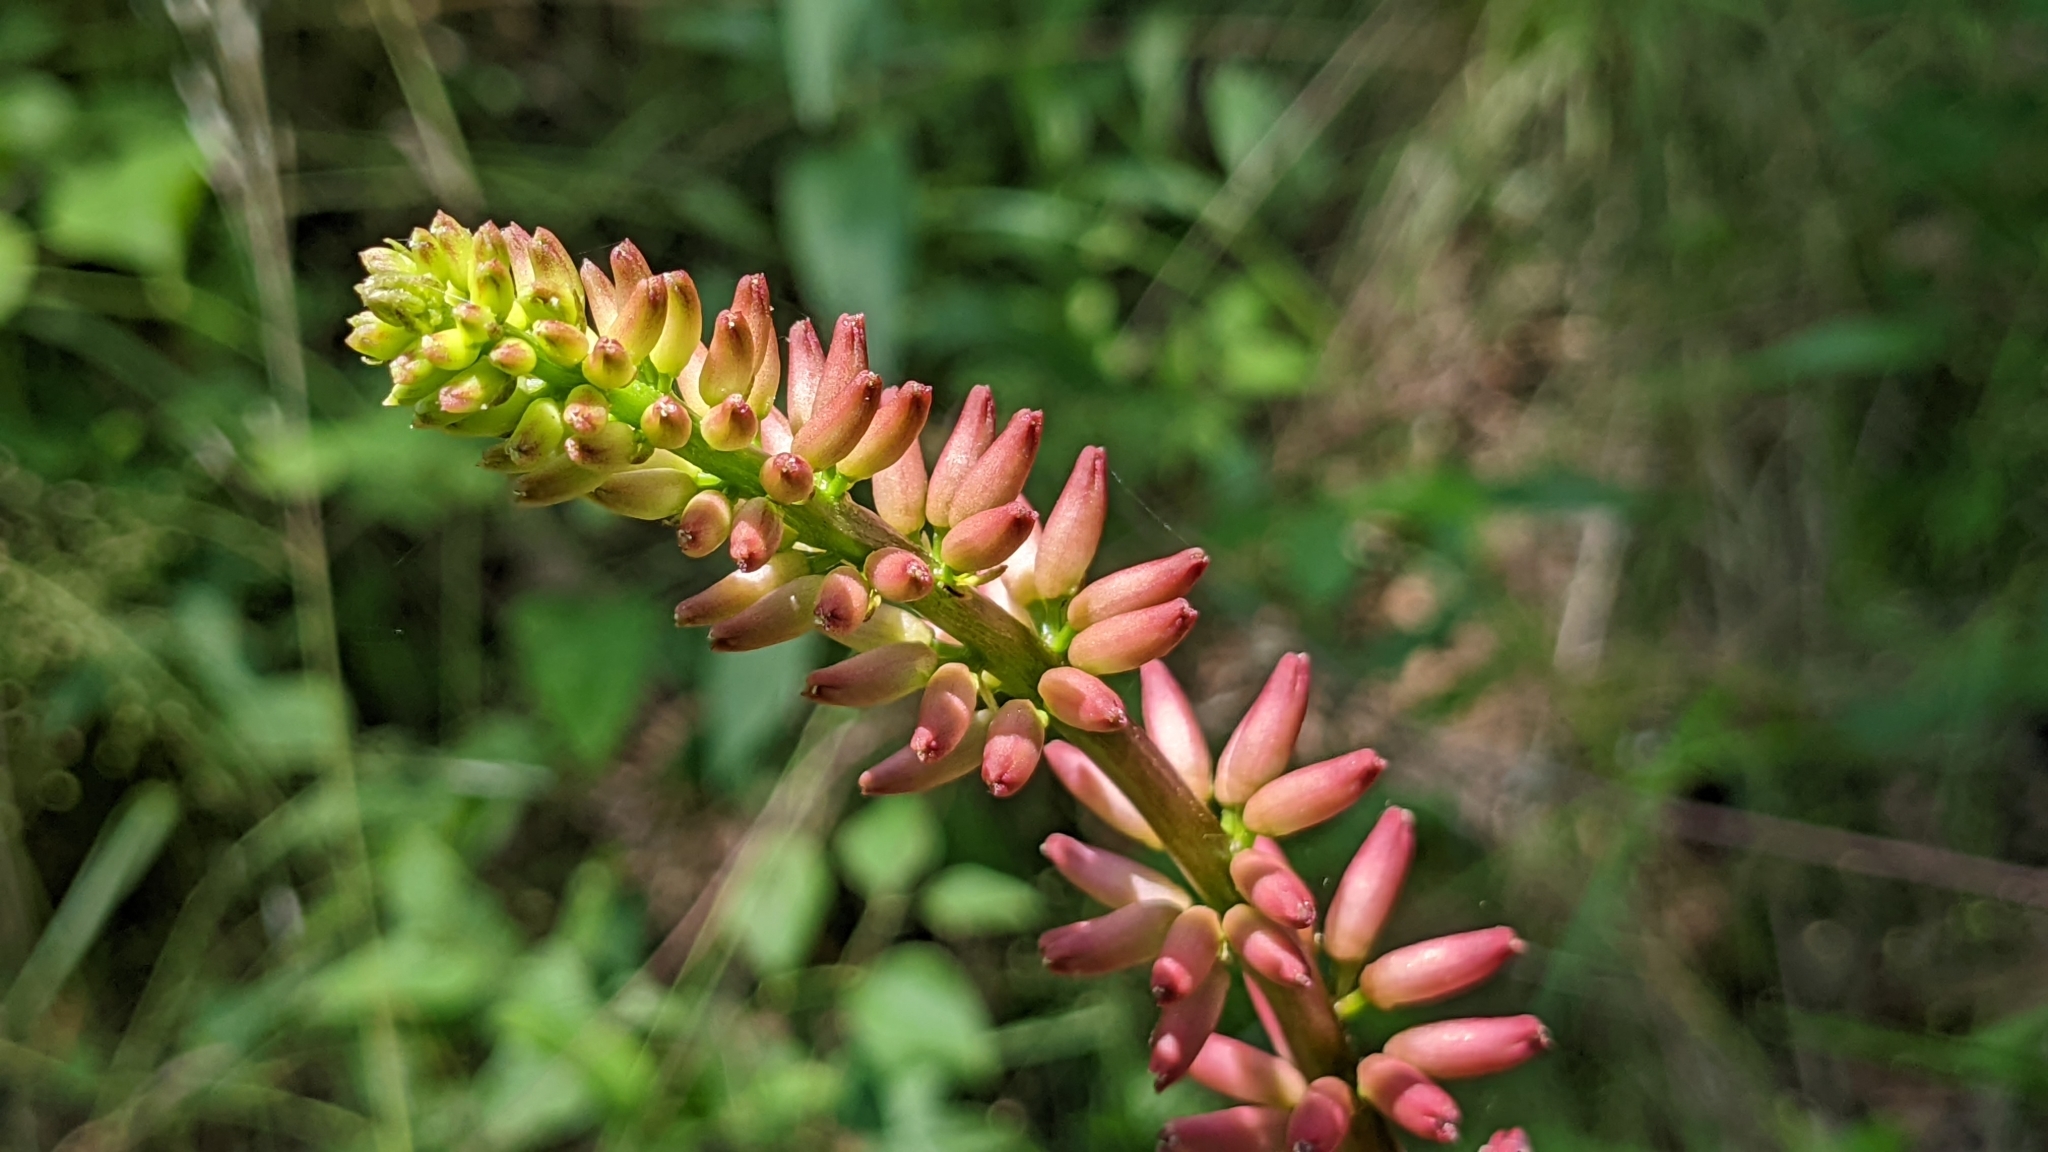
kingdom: Plantae
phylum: Tracheophyta
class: Magnoliopsida
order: Fabales
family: Fabaceae
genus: Erythrina
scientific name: Erythrina herbacea
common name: Coral-bean
